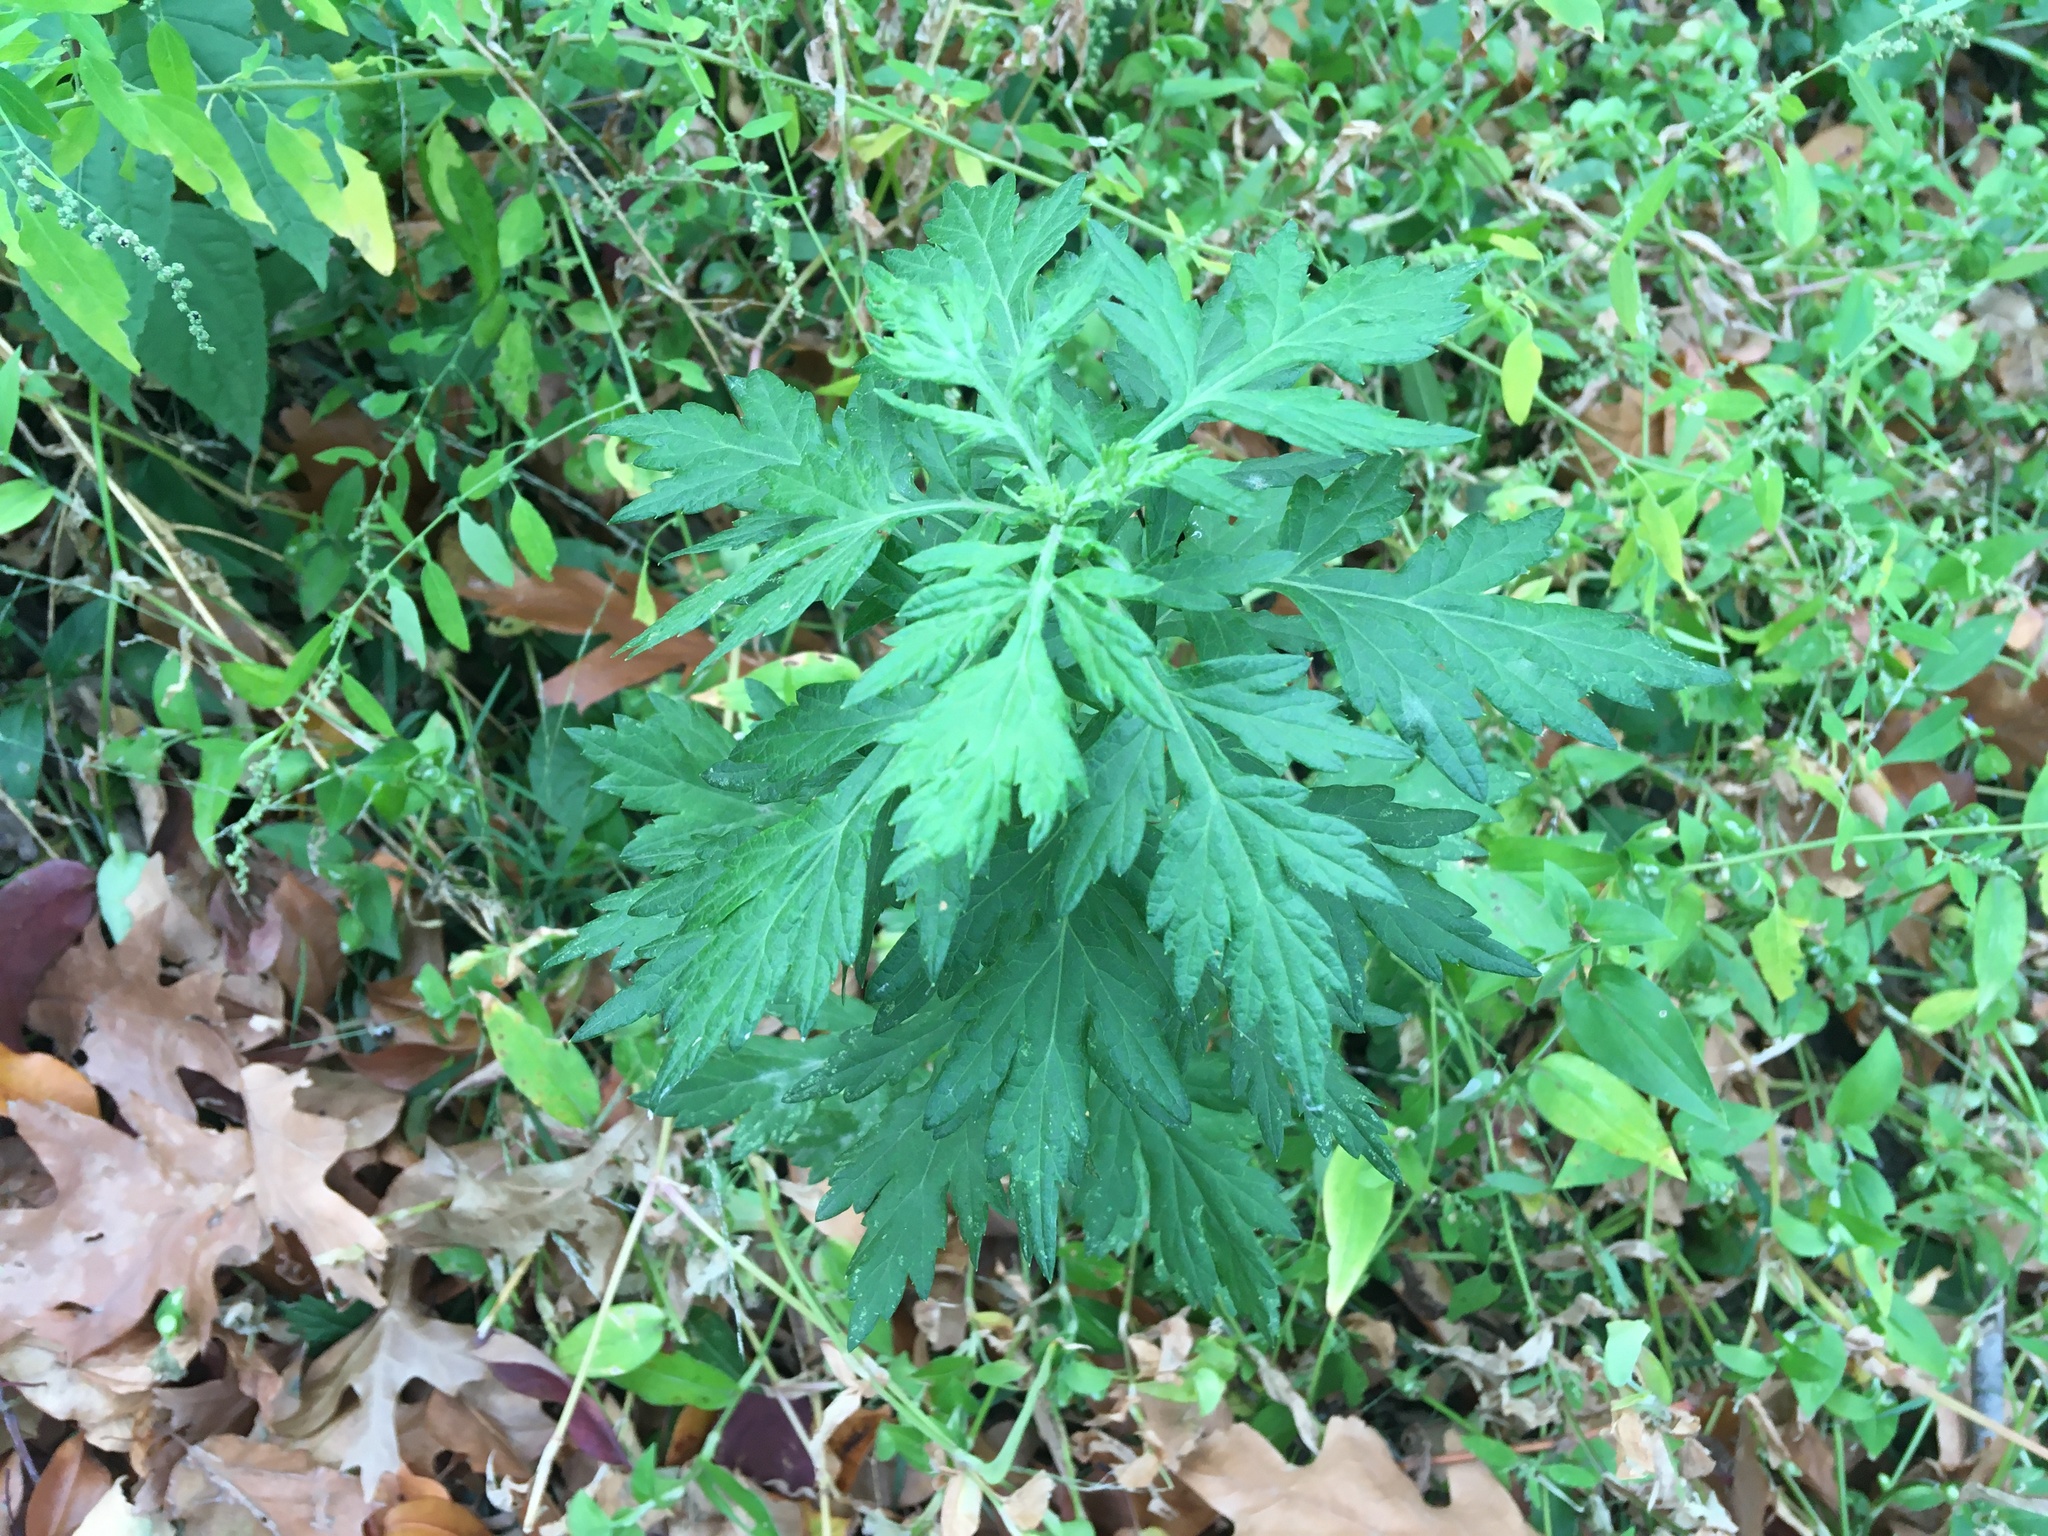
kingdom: Plantae
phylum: Tracheophyta
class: Magnoliopsida
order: Asterales
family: Asteraceae
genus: Artemisia
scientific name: Artemisia vulgaris
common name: Mugwort
